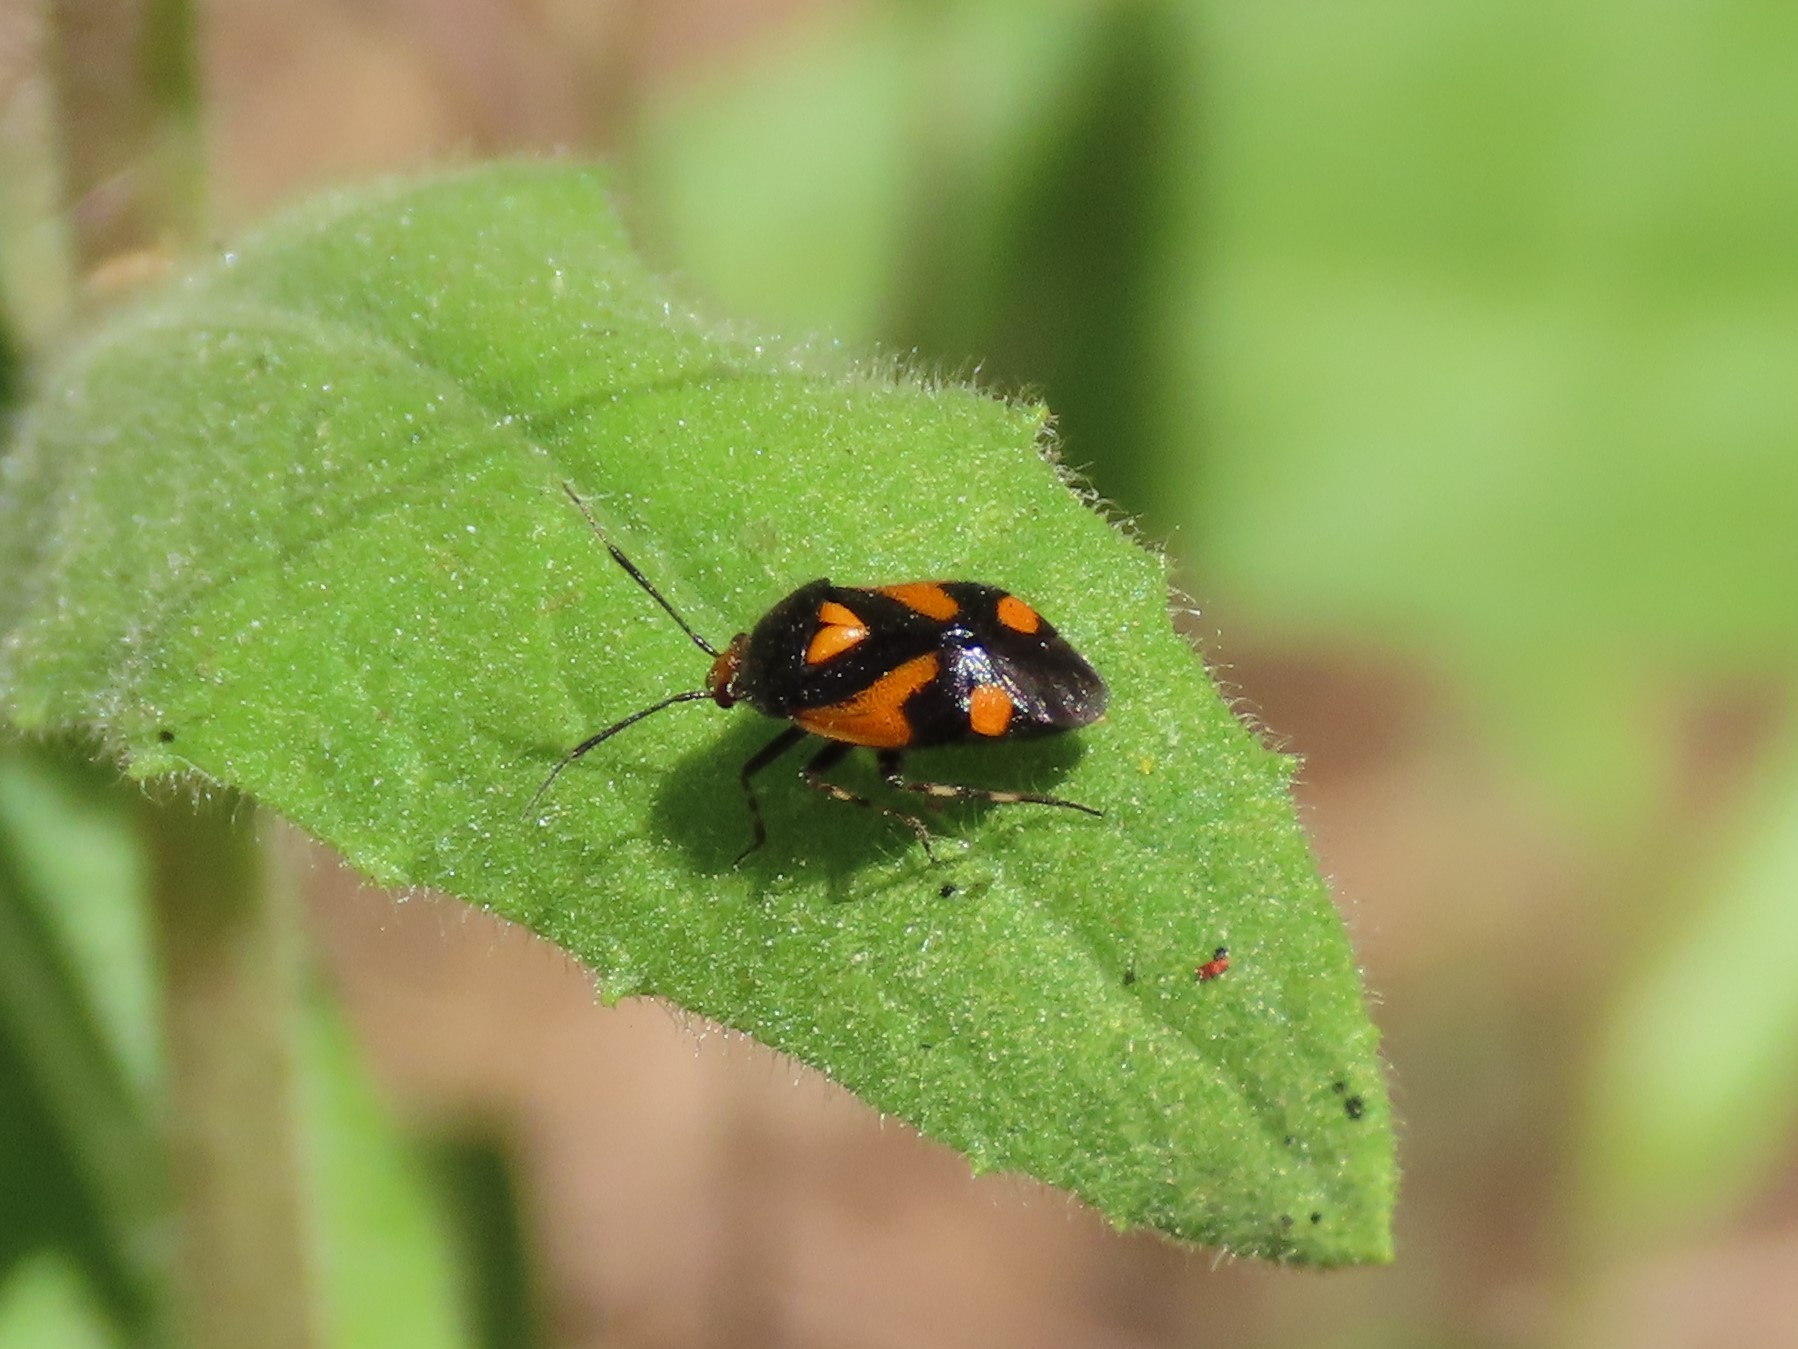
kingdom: Animalia
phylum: Arthropoda
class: Insecta
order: Hemiptera
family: Miridae
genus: Deraeocoris
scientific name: Deraeocoris schach
